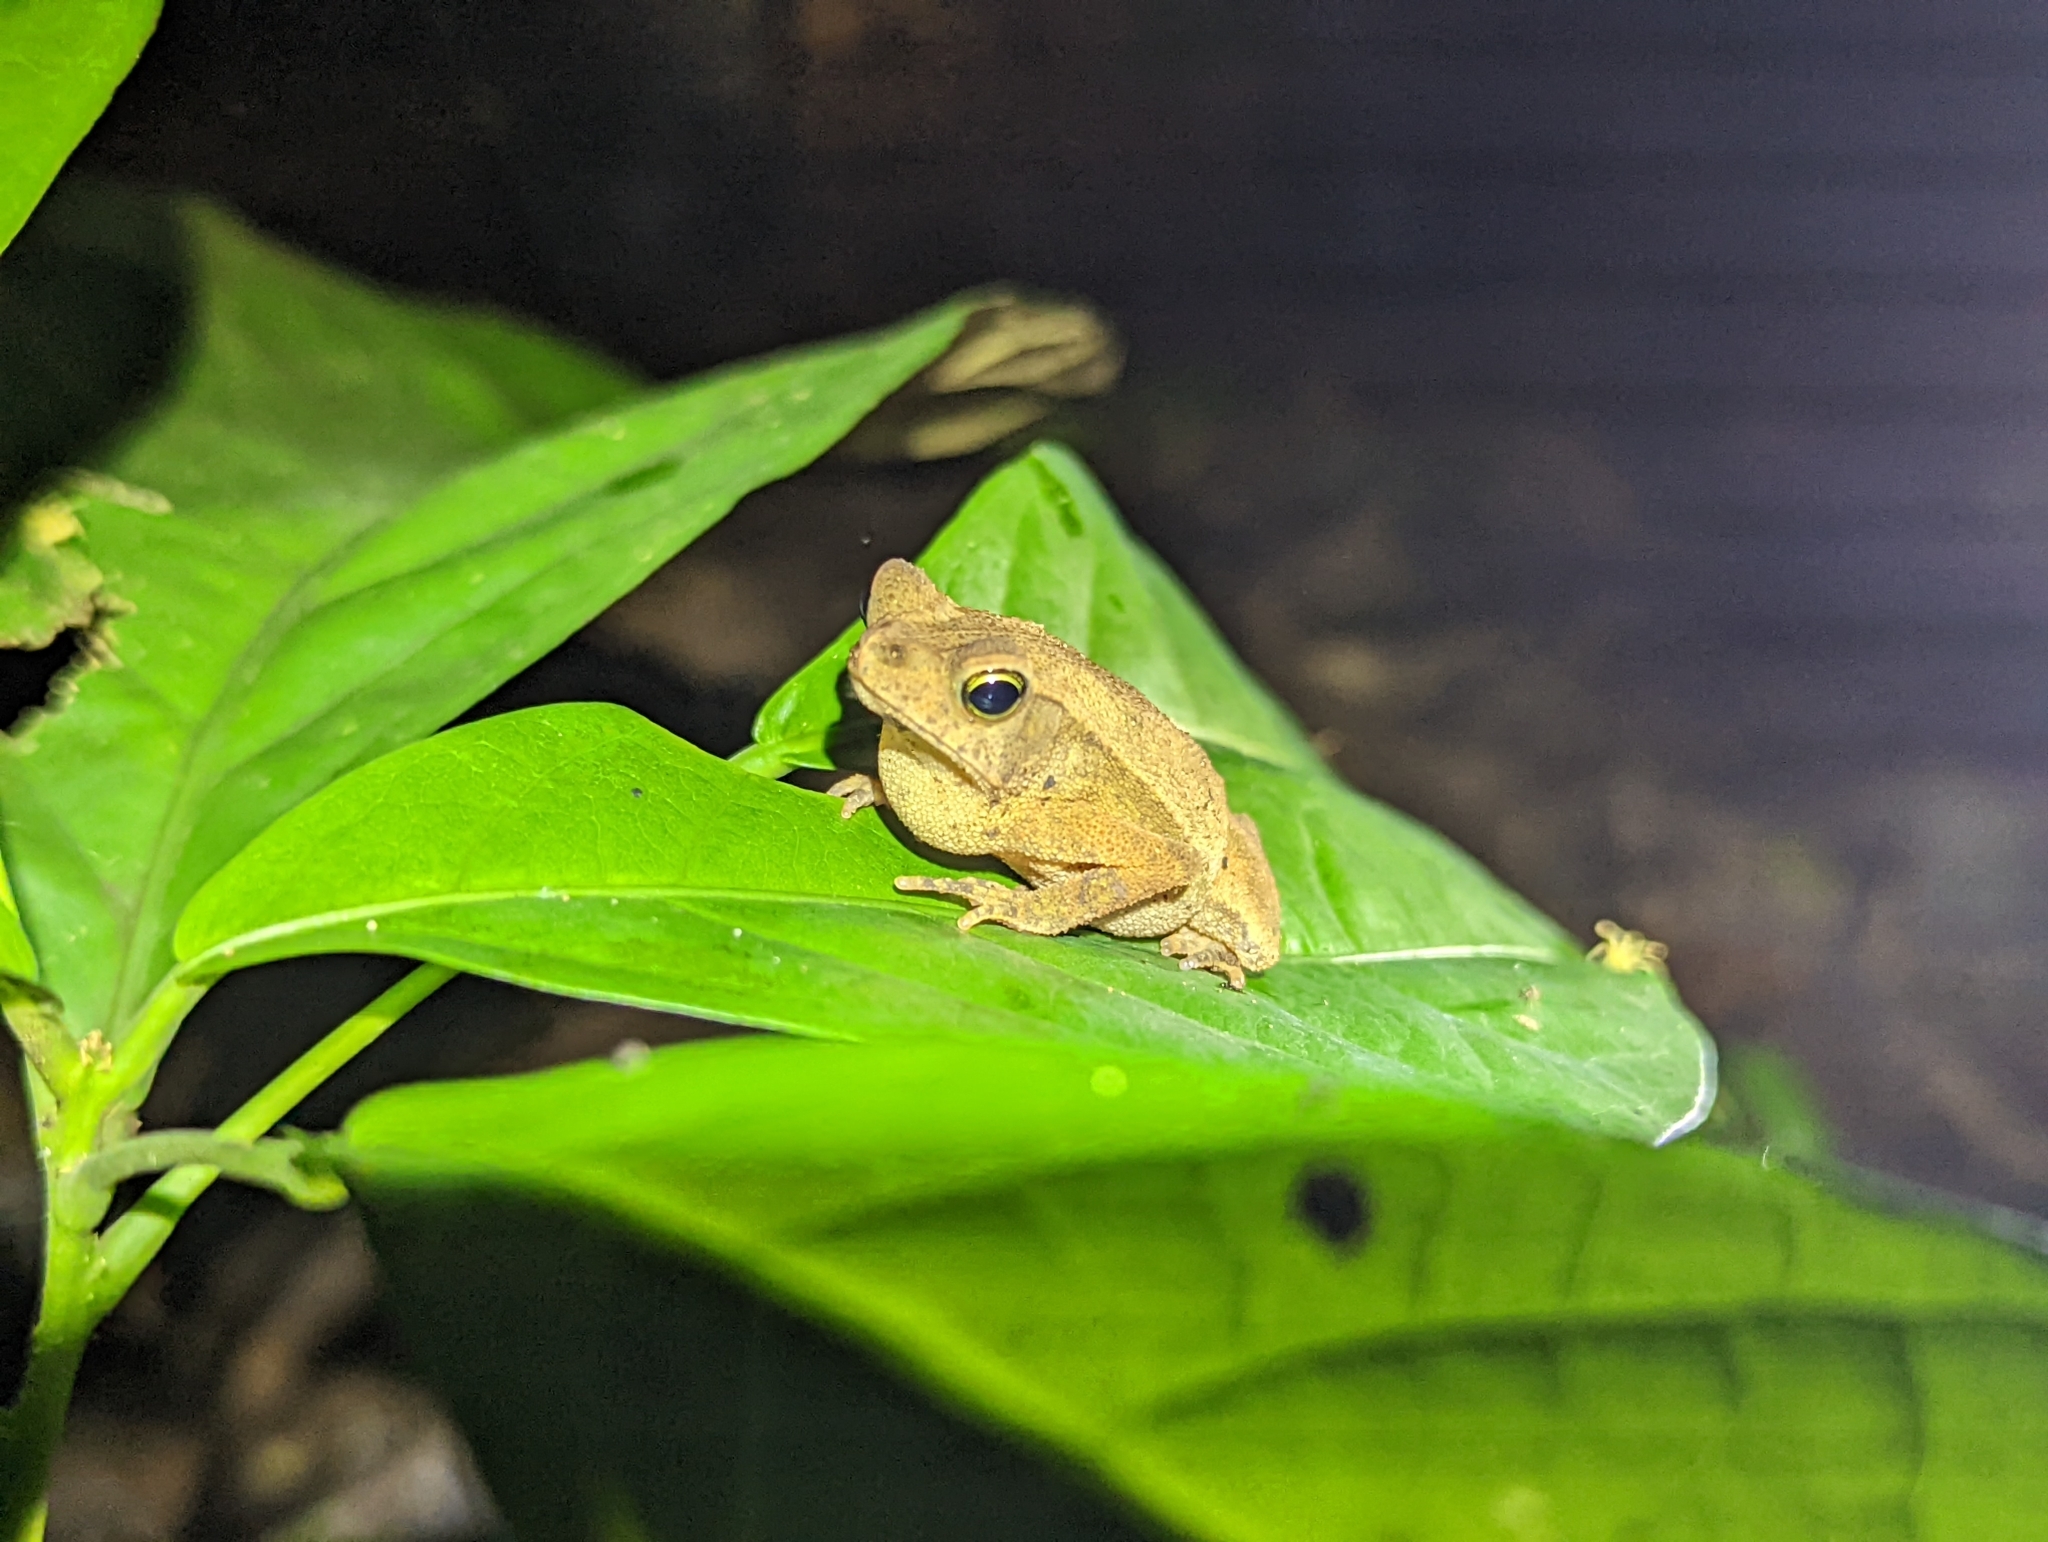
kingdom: Animalia
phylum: Chordata
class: Amphibia
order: Anura
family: Bufonidae
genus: Rhinella
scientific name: Rhinella alata
